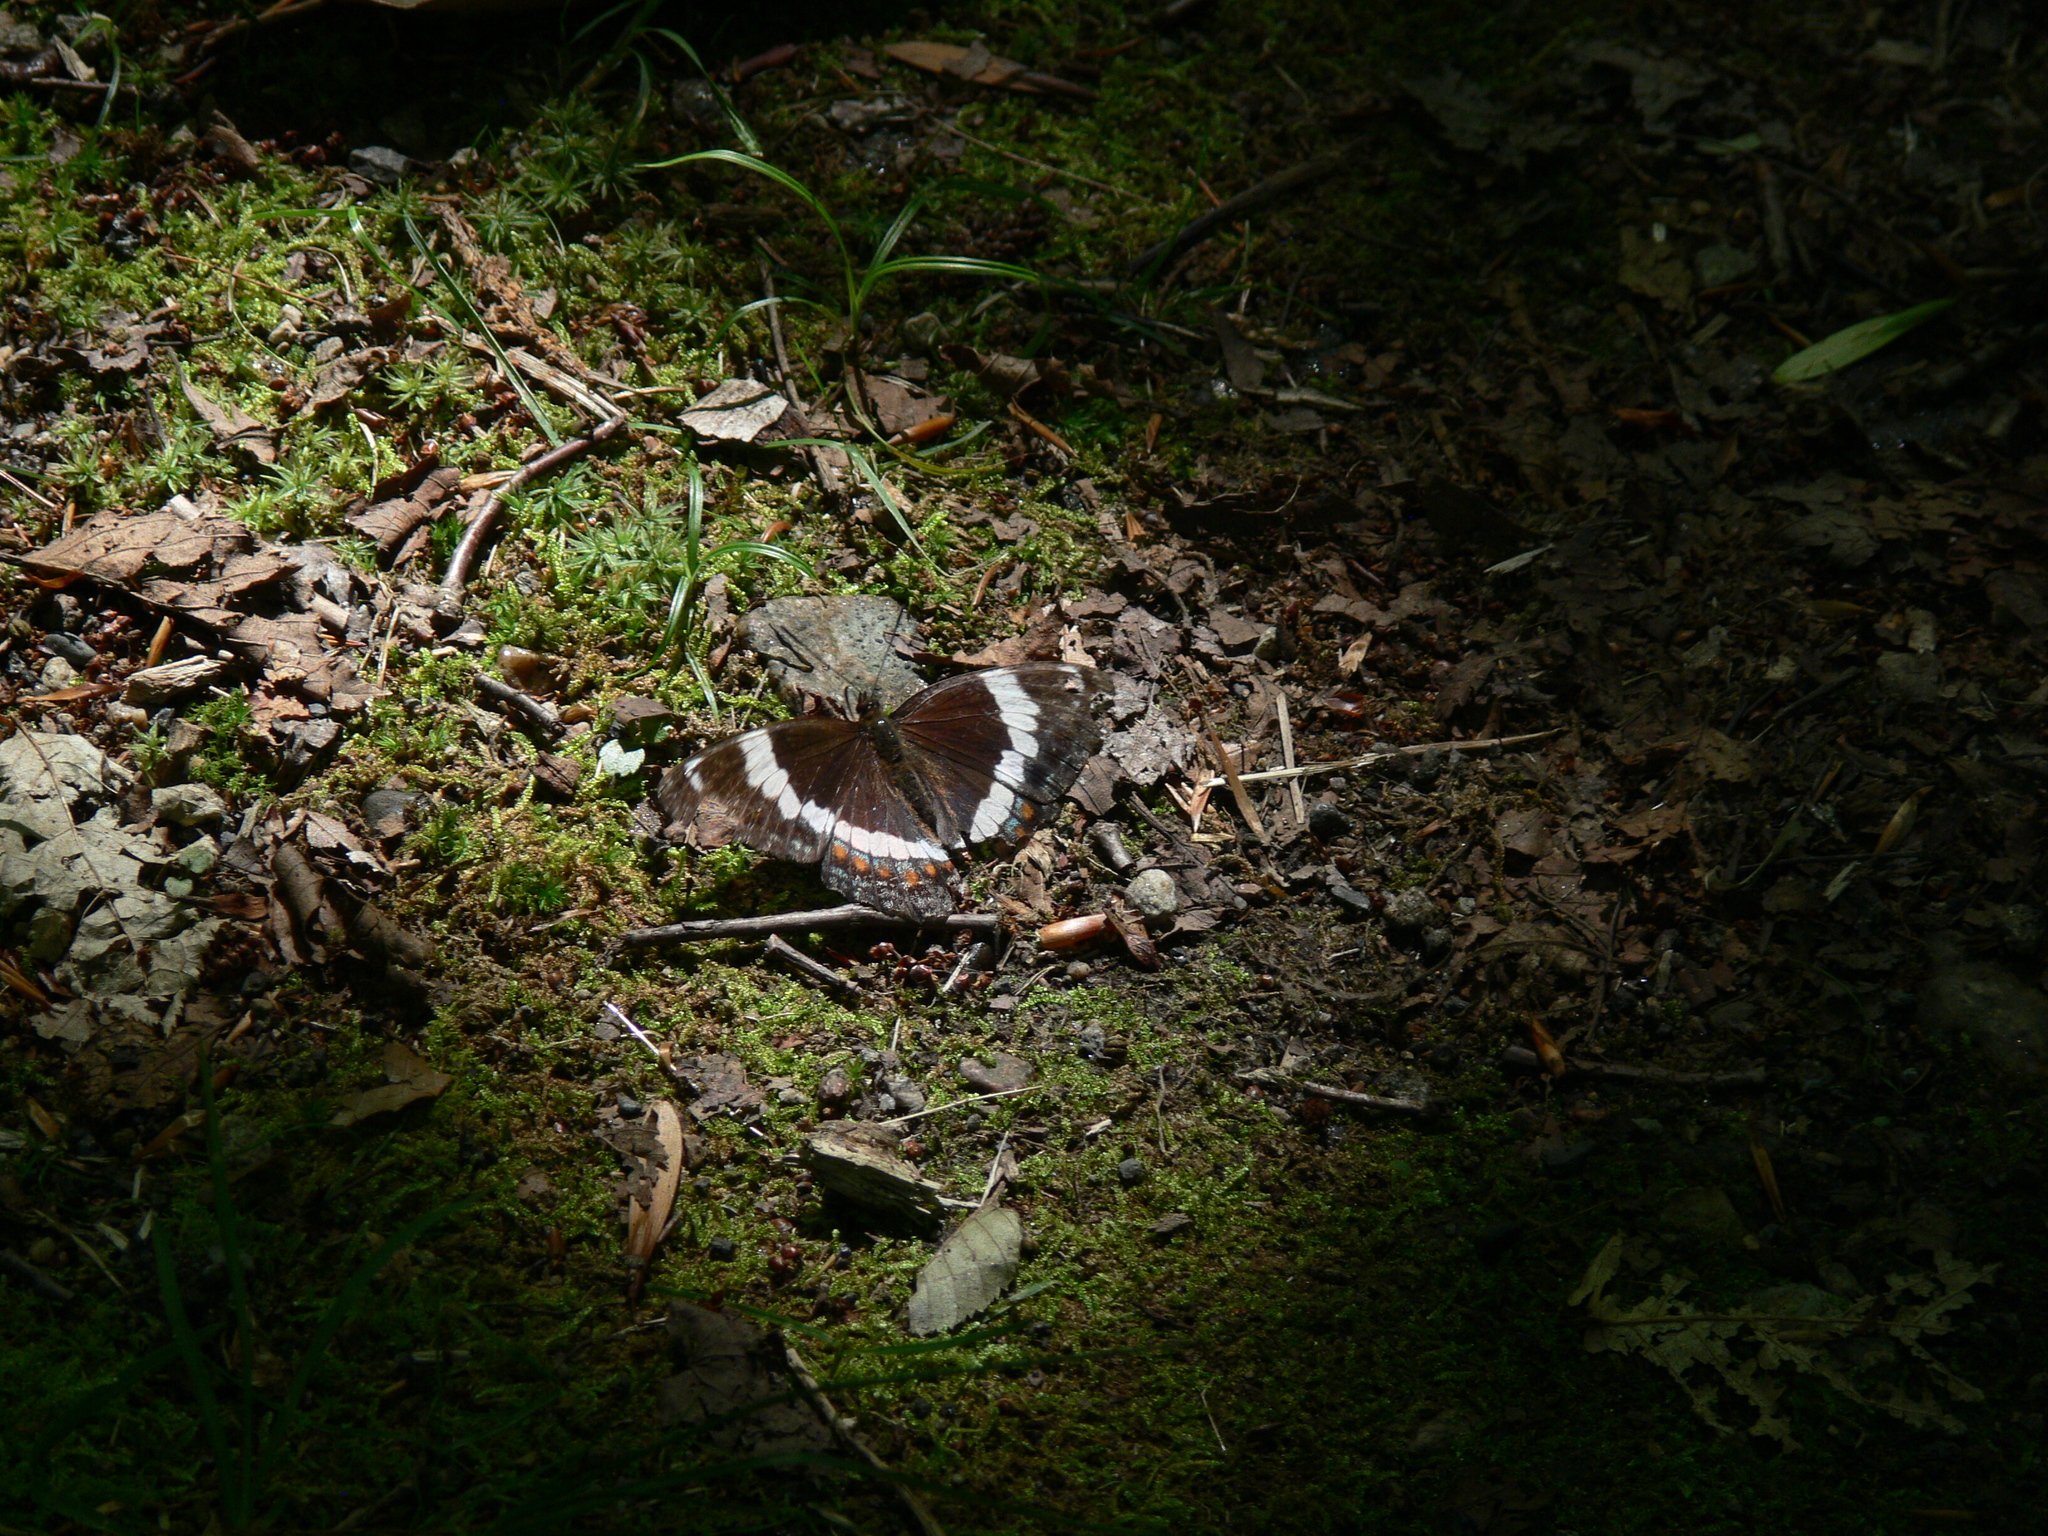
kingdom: Animalia
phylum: Arthropoda
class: Insecta
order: Lepidoptera
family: Nymphalidae
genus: Limenitis
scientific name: Limenitis arthemis
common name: Red-spotted admiral
